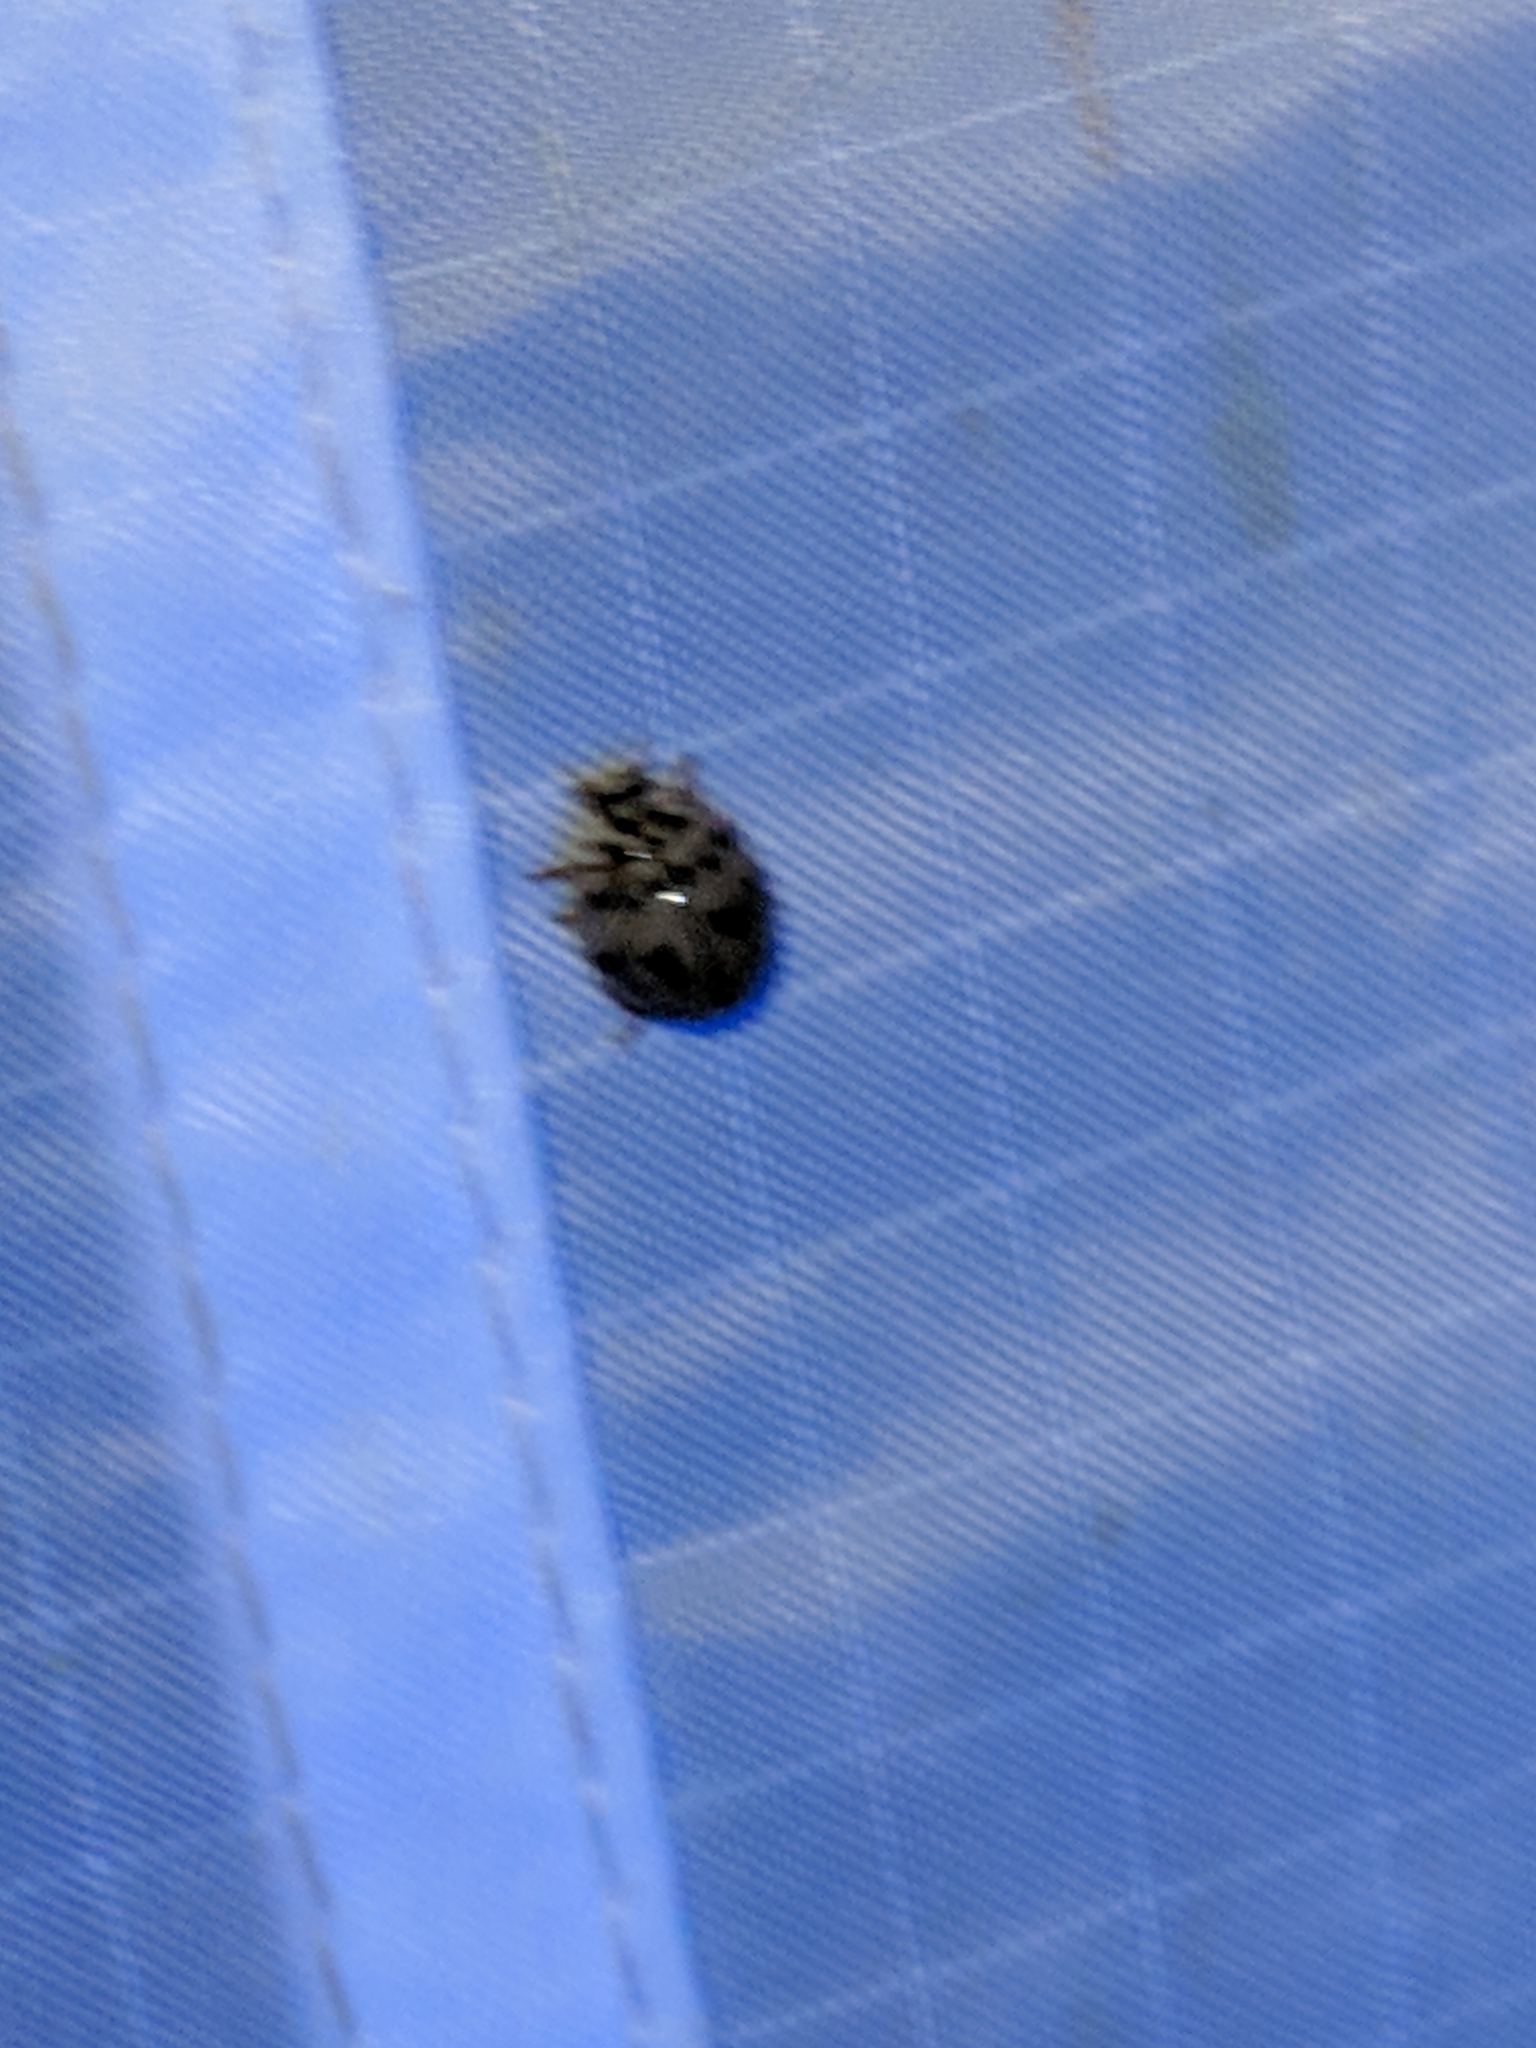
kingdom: Animalia
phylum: Arthropoda
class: Insecta
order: Coleoptera
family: Coccinellidae
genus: Olla
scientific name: Olla v-nigrum
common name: Ashy gray lady beetle
